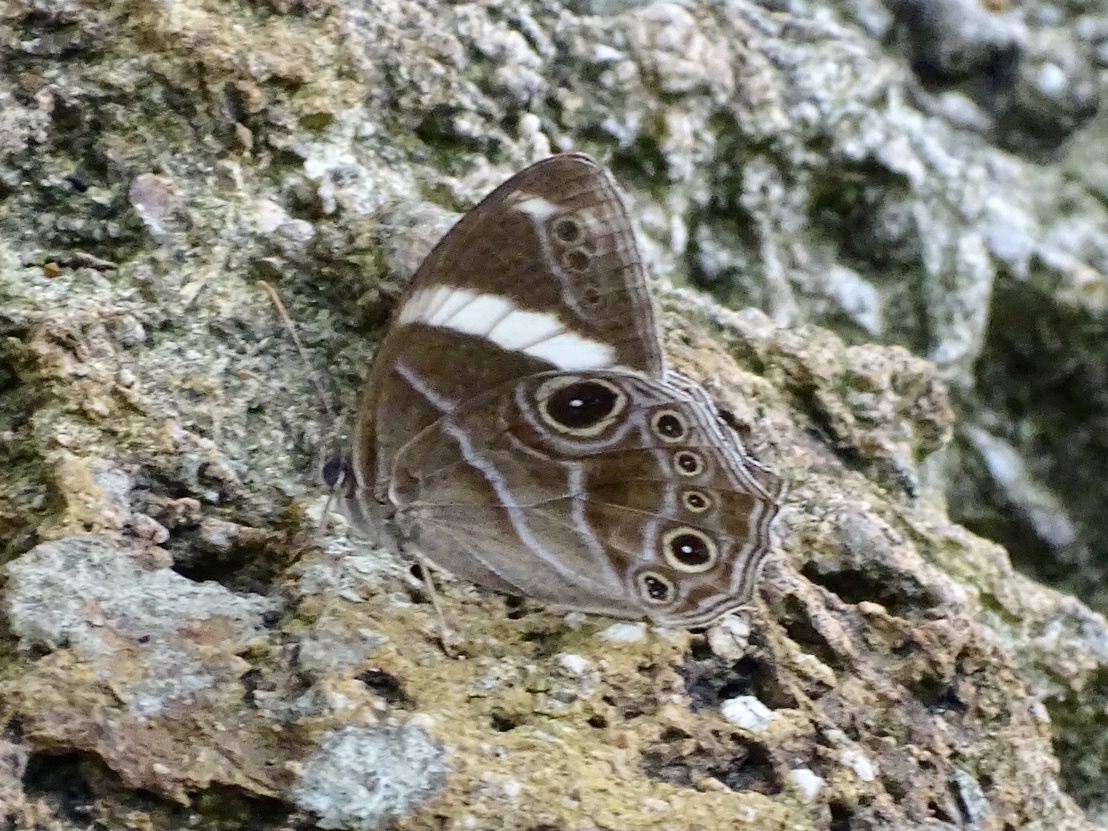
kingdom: Animalia
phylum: Arthropoda
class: Insecta
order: Lepidoptera
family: Nymphalidae
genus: Lethe
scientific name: Lethe confusa
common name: Banded treebrown
